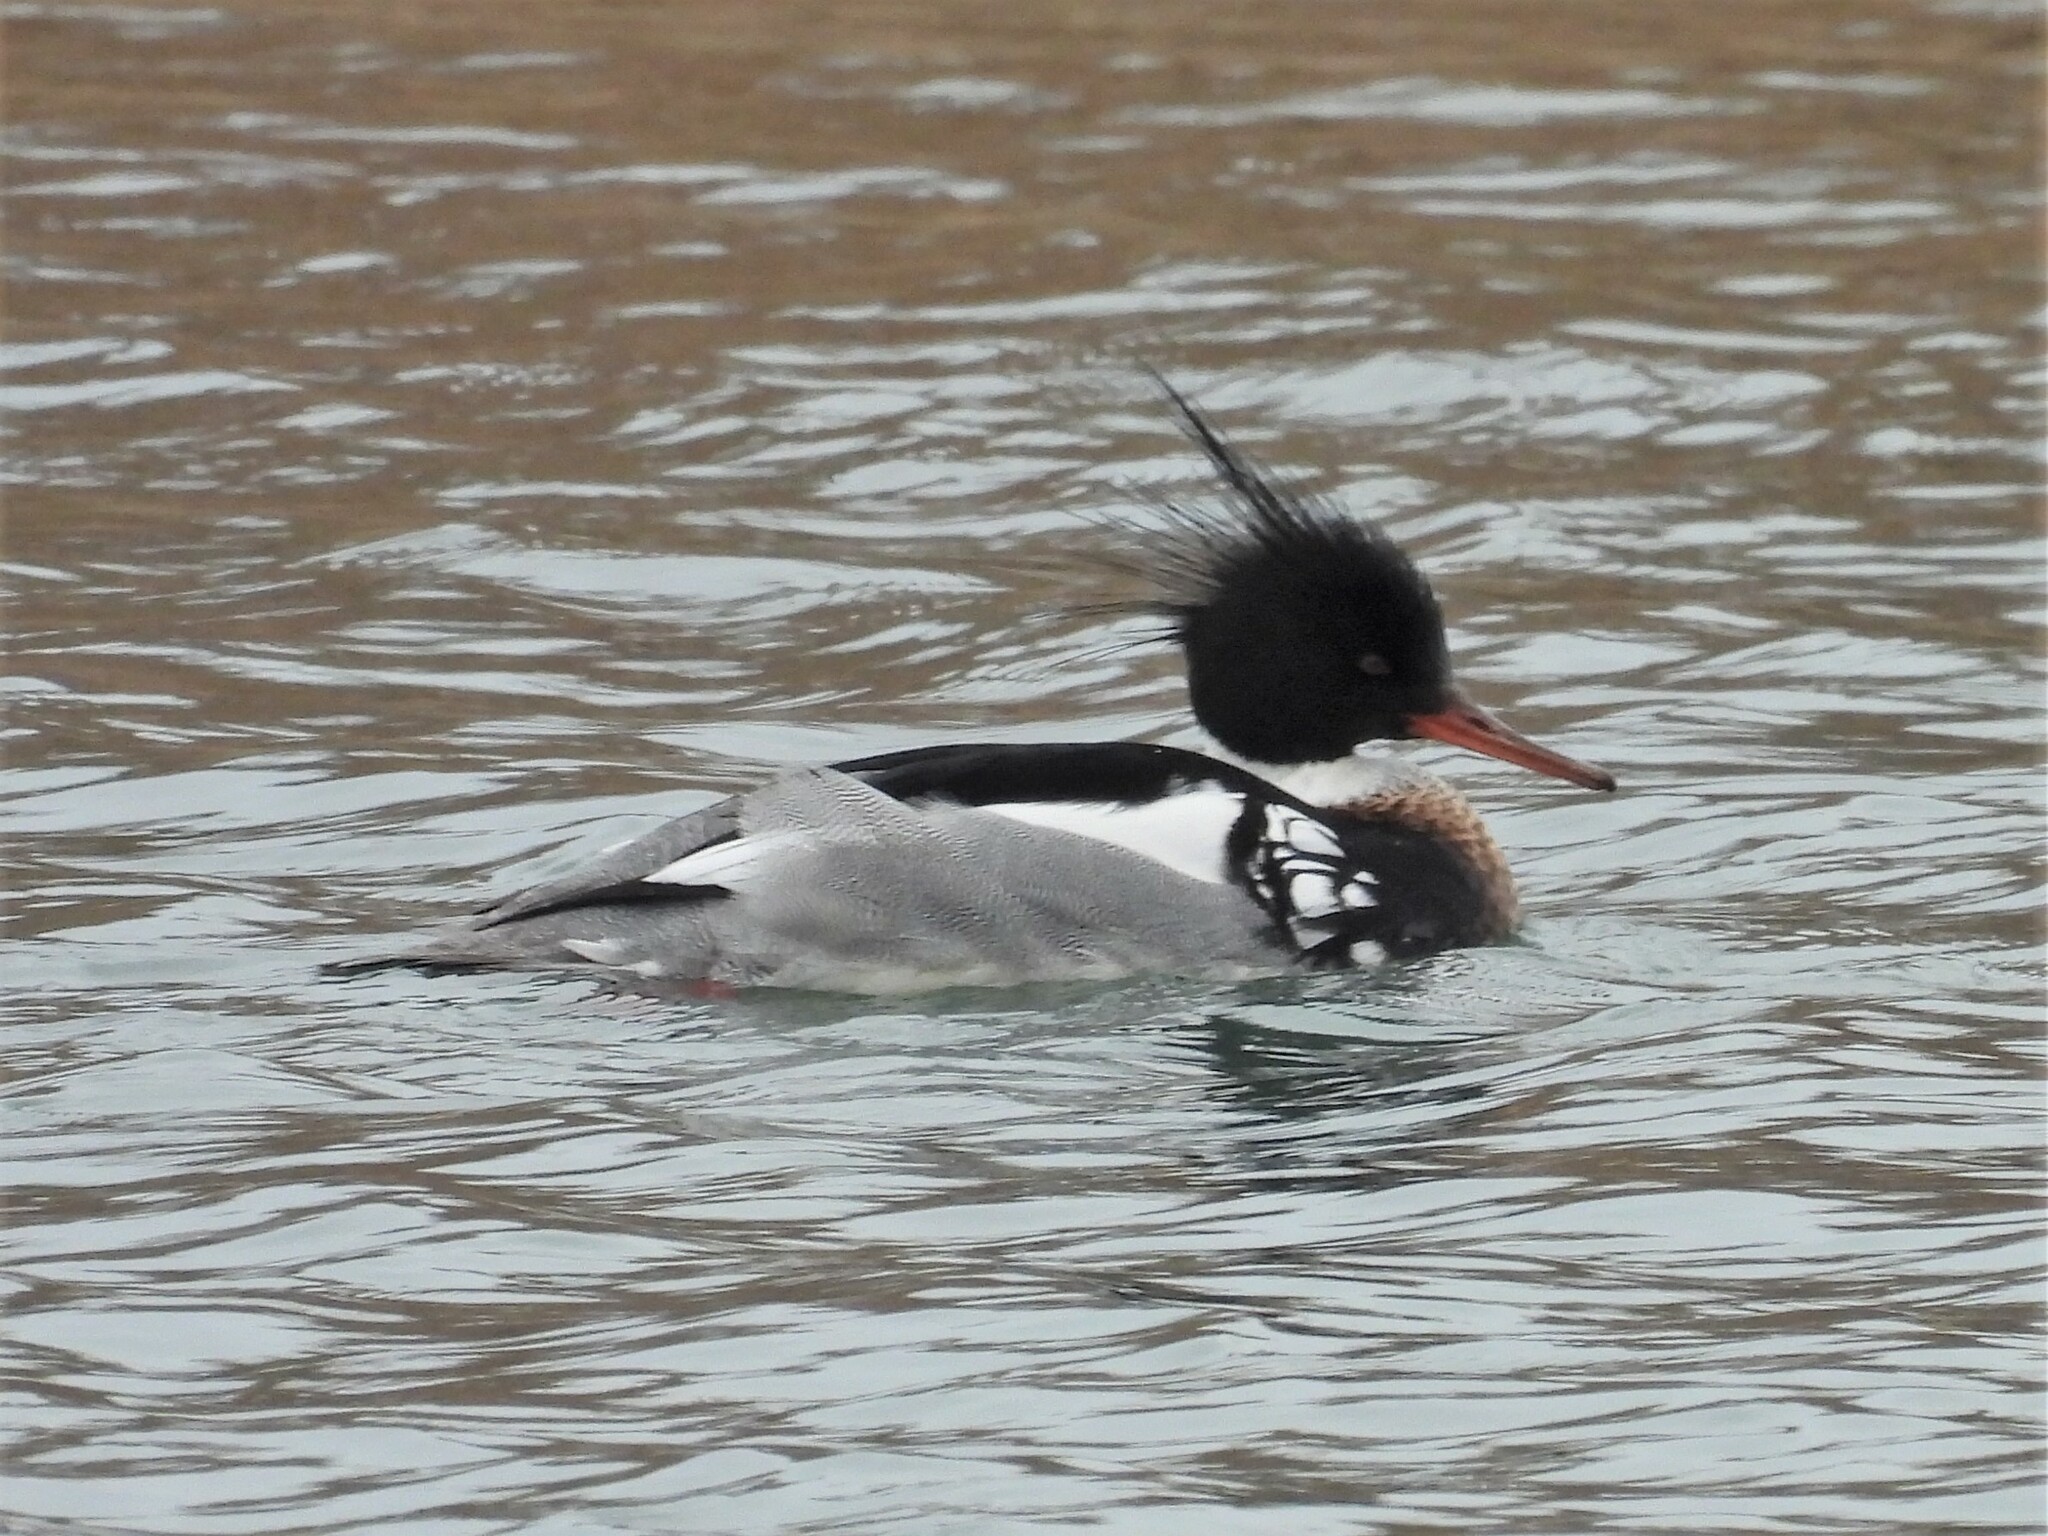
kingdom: Animalia
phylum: Chordata
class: Aves
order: Anseriformes
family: Anatidae
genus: Mergus
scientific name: Mergus serrator
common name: Red-breasted merganser
